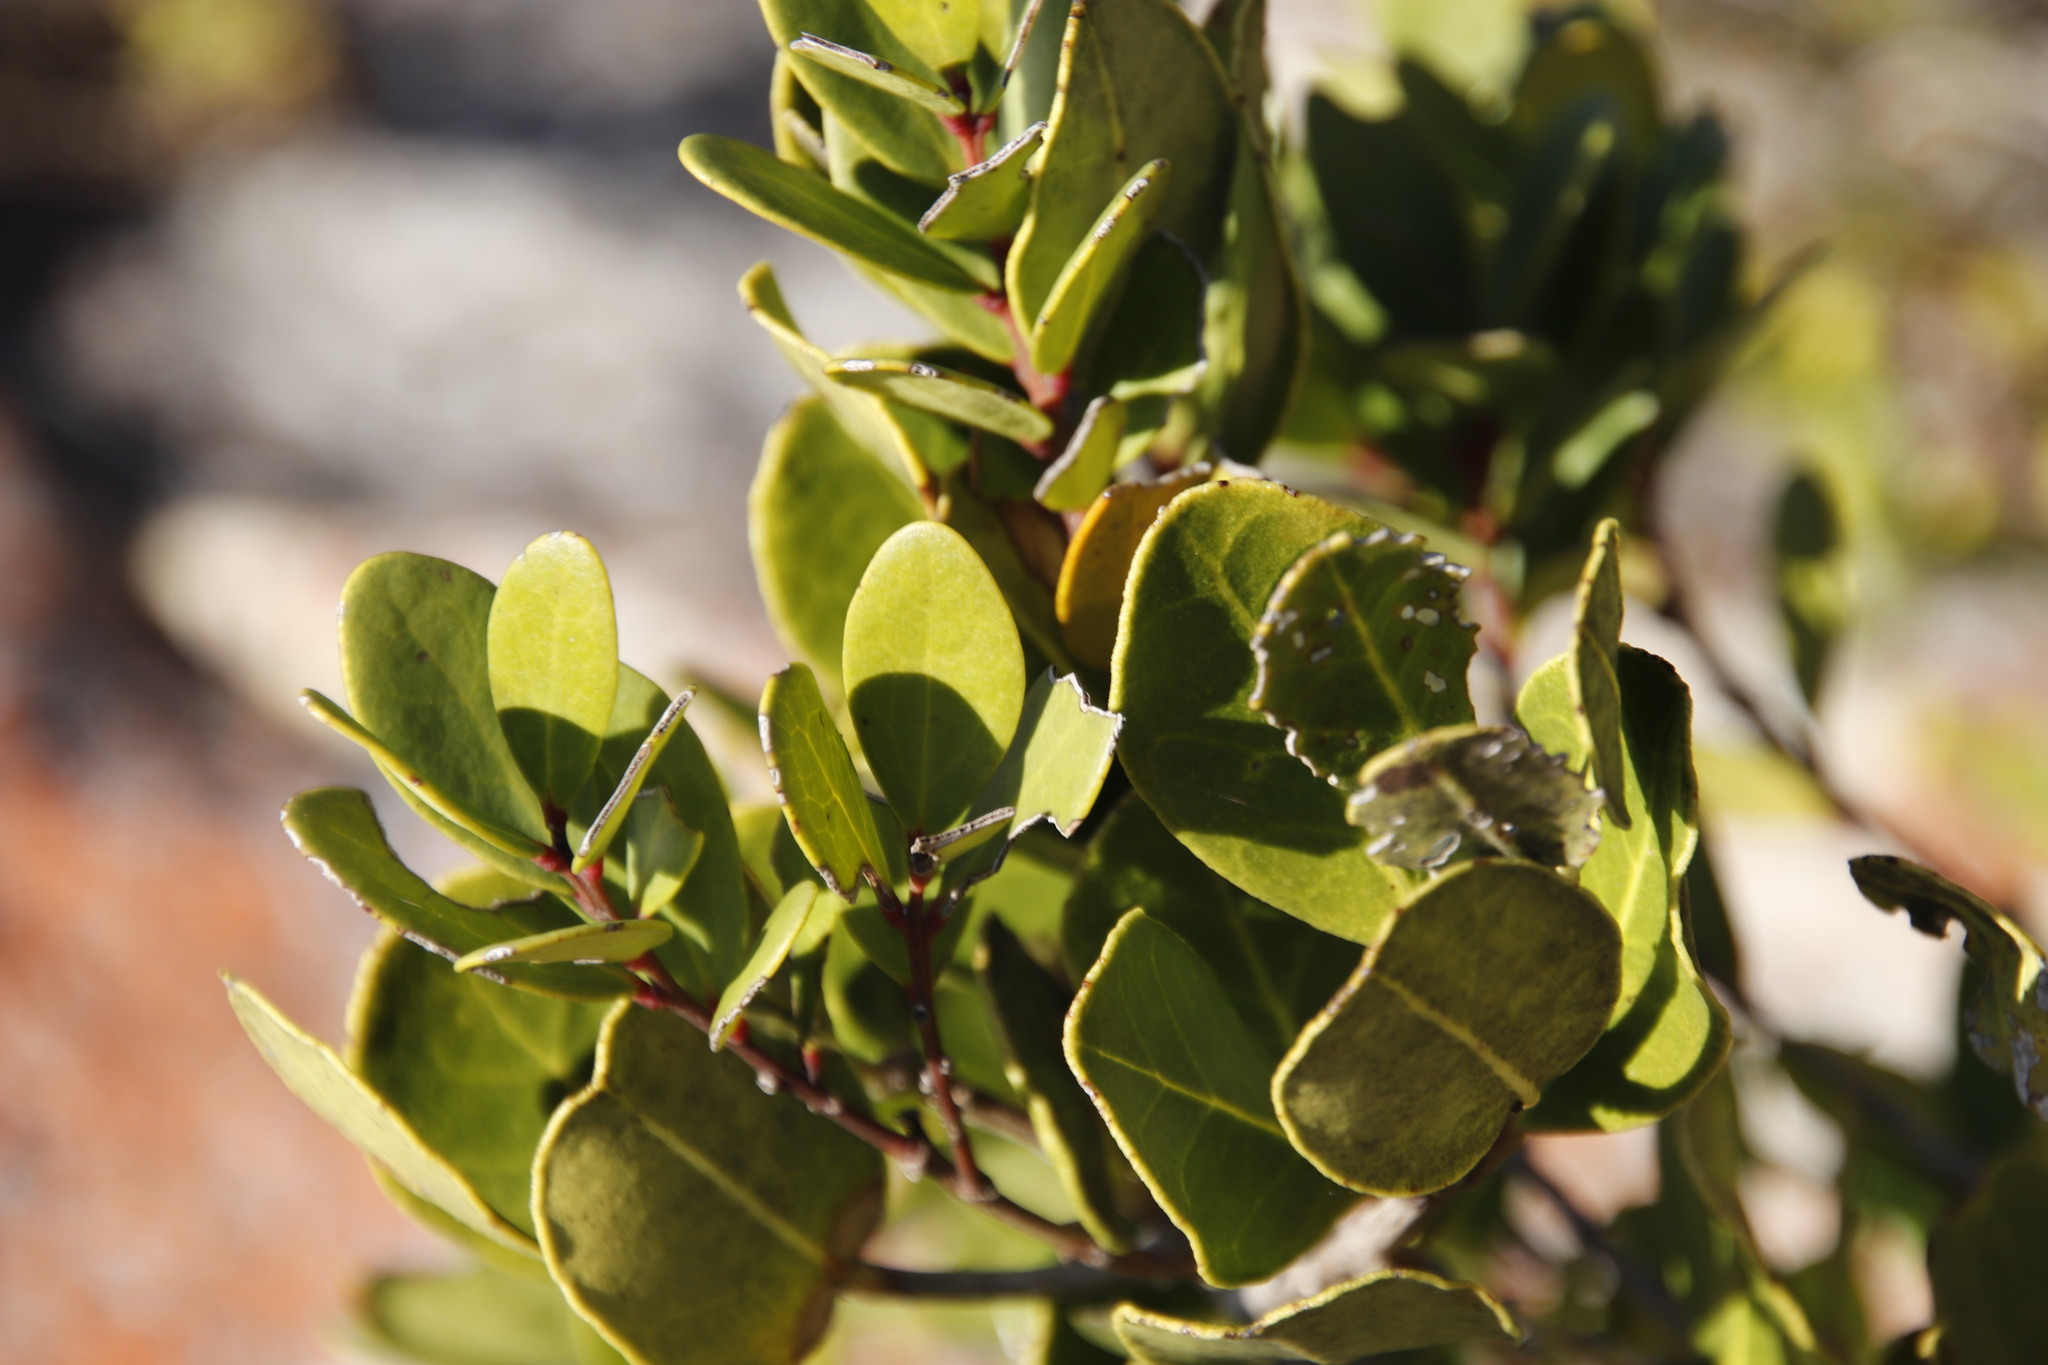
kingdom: Plantae
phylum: Tracheophyta
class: Magnoliopsida
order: Ericales
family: Ebenaceae
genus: Euclea
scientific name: Euclea racemosa
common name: Dune guarri
